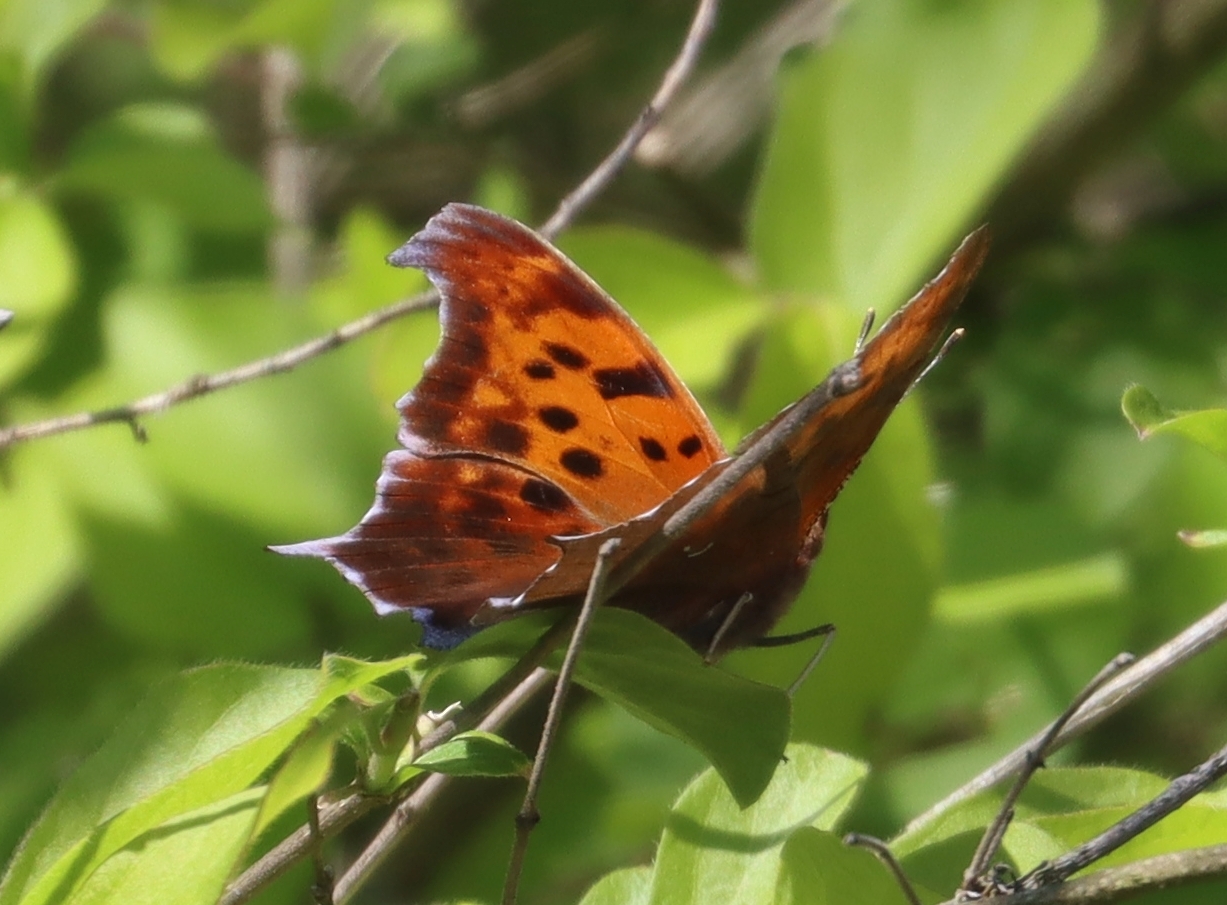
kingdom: Animalia
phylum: Arthropoda
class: Insecta
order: Lepidoptera
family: Nymphalidae
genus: Polygonia
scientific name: Polygonia interrogationis
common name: Question mark
